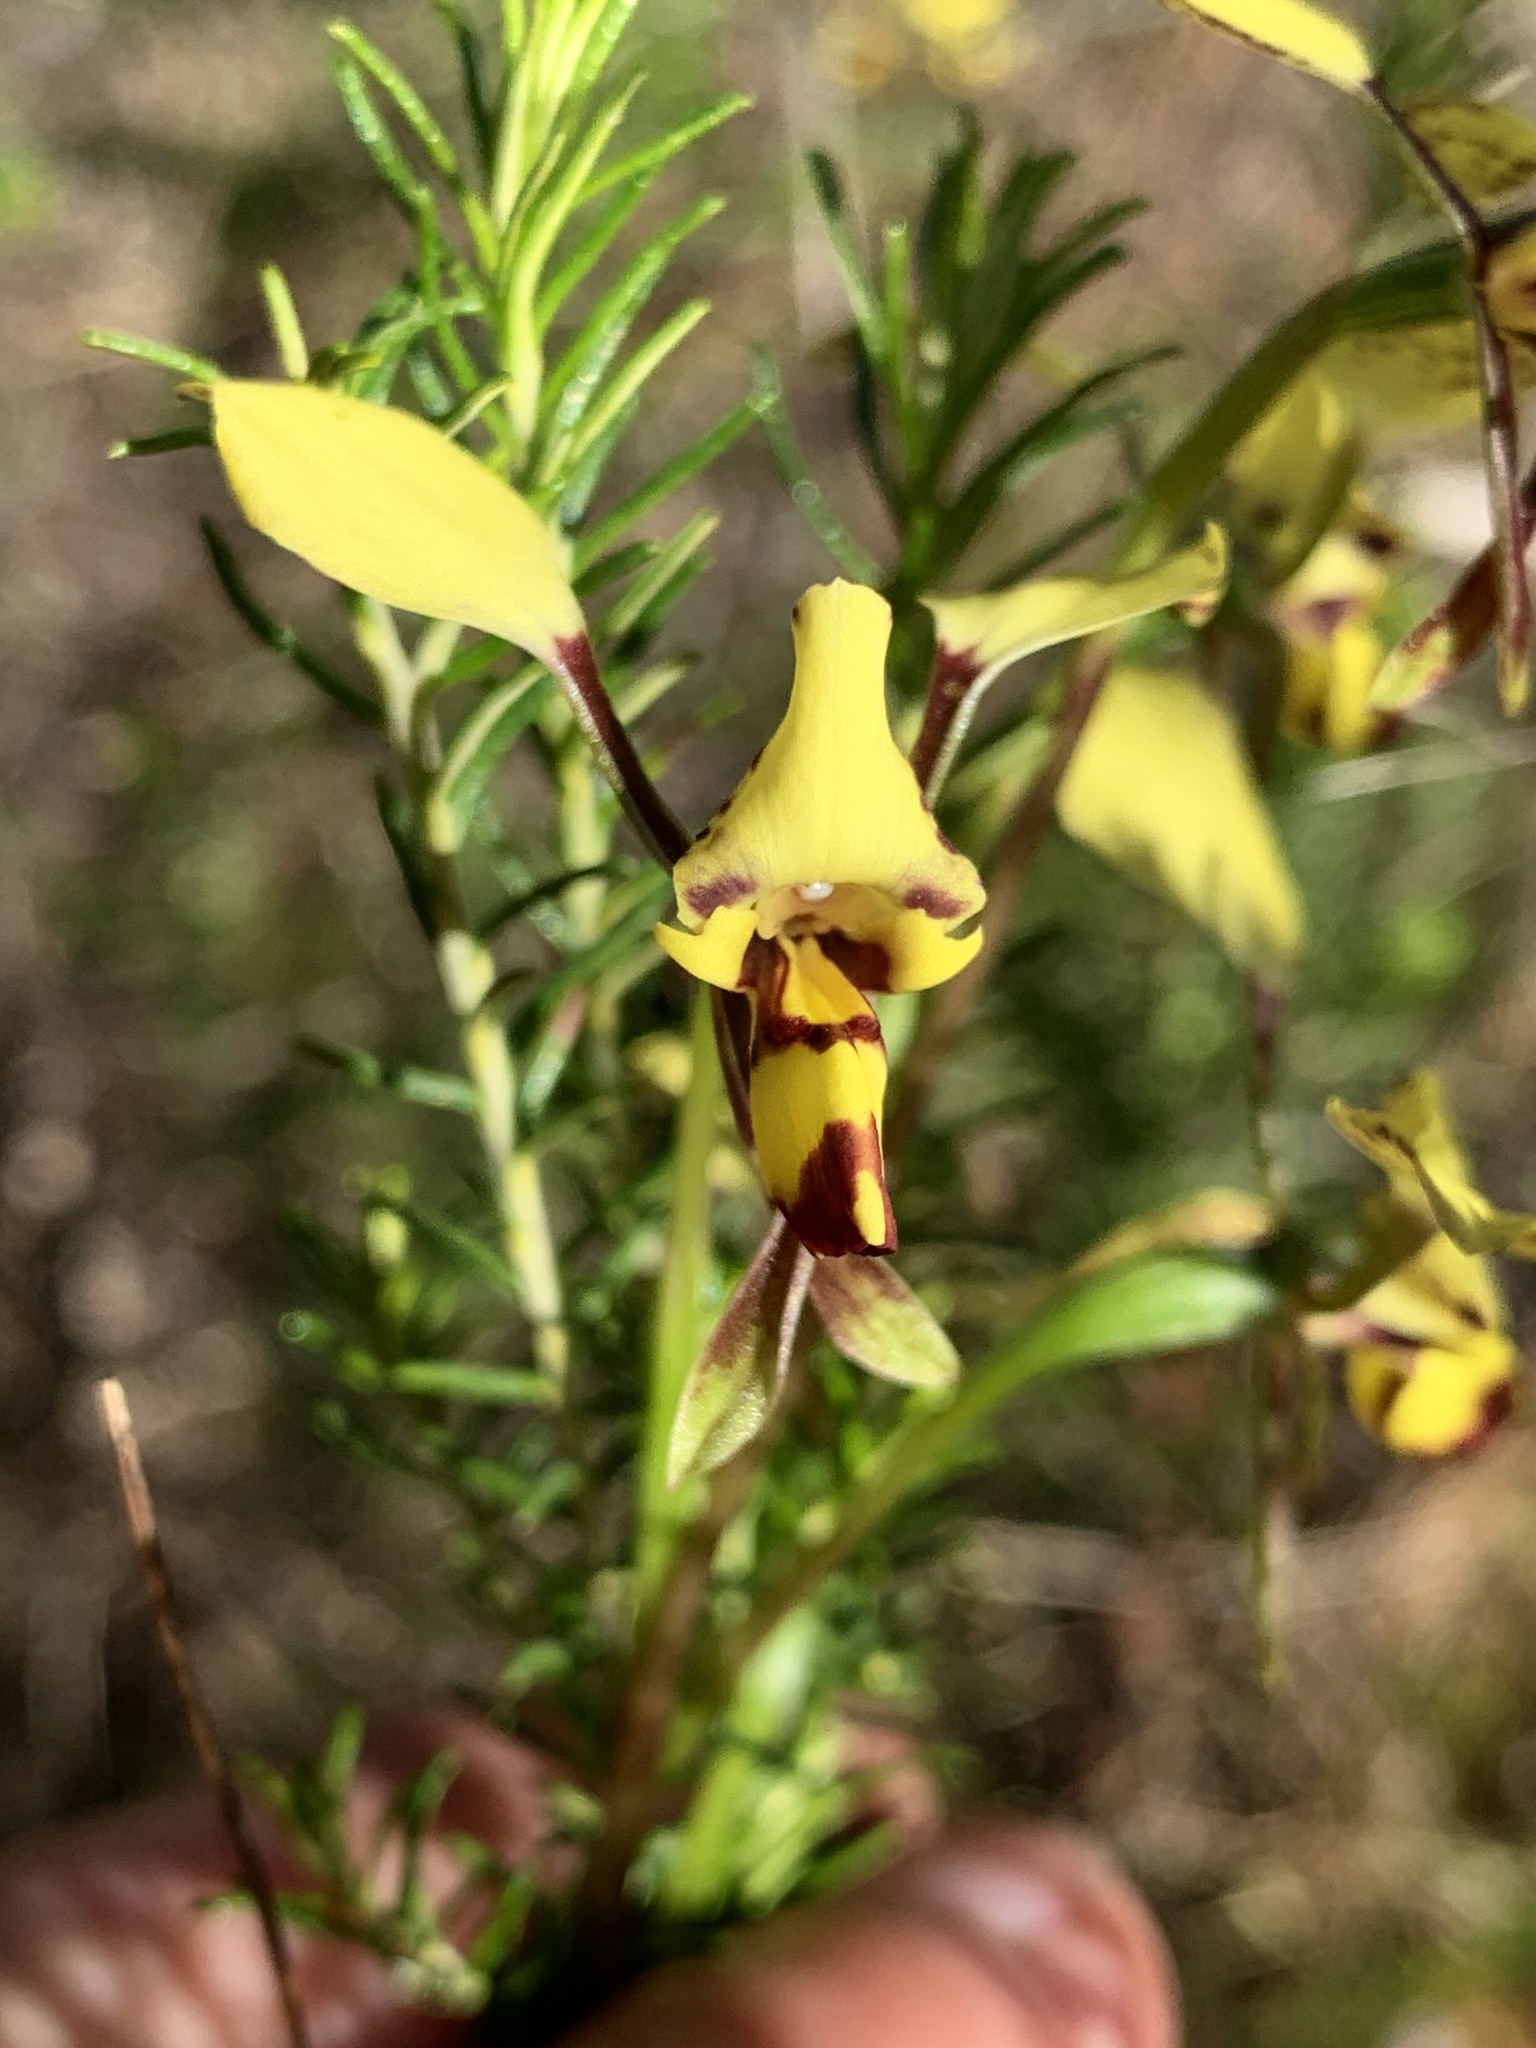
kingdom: Plantae
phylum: Tracheophyta
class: Liliopsida
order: Asparagales
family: Orchidaceae
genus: Diuris
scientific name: Diuris platichila
